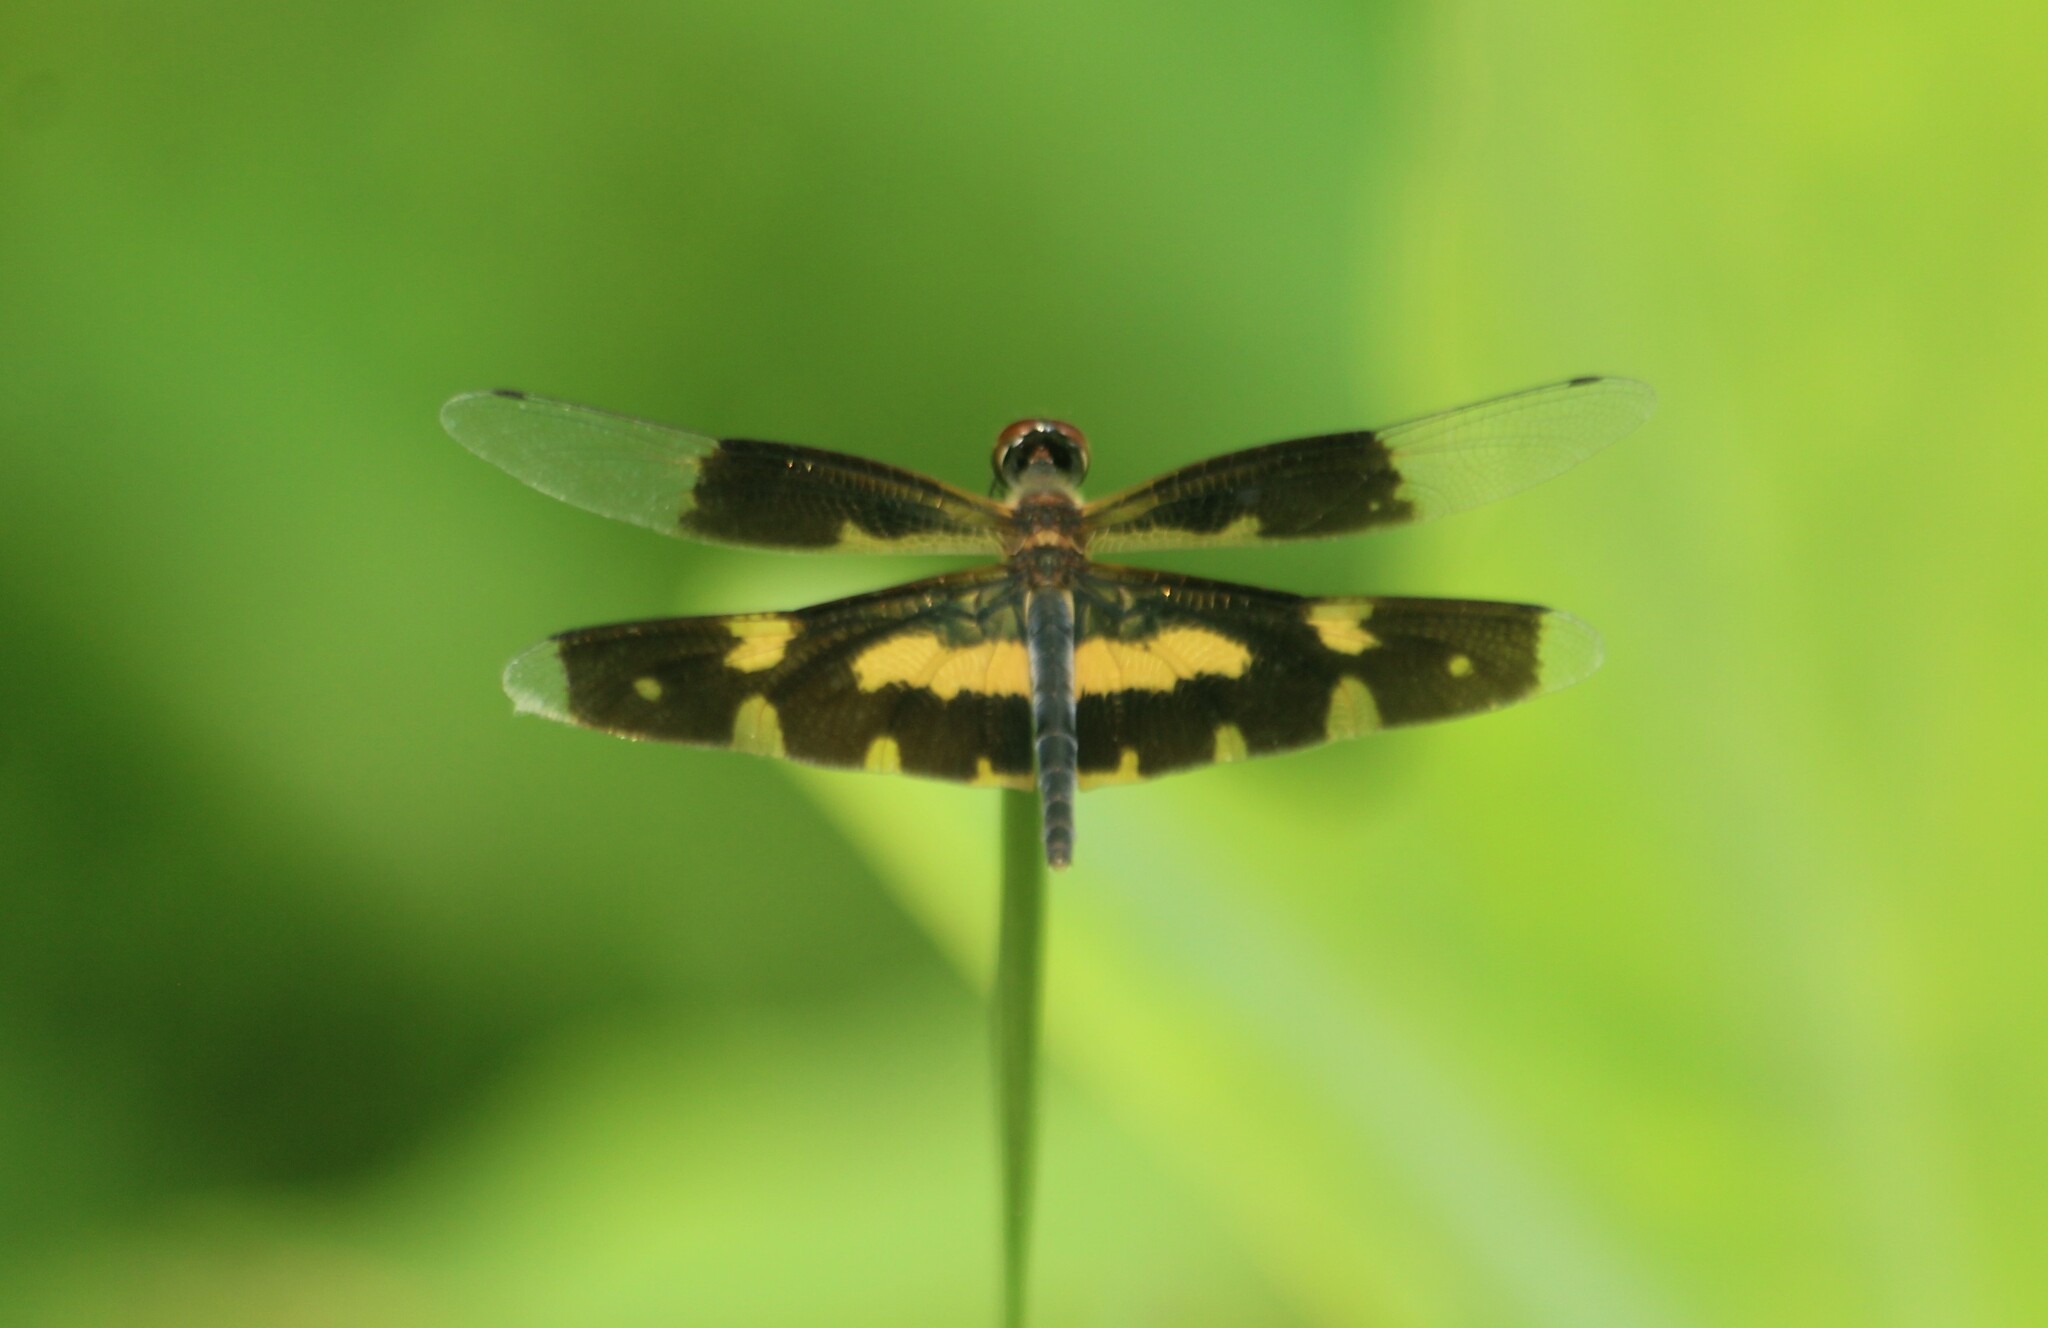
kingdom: Animalia
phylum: Arthropoda
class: Insecta
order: Odonata
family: Libellulidae
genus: Rhyothemis
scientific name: Rhyothemis variegata
